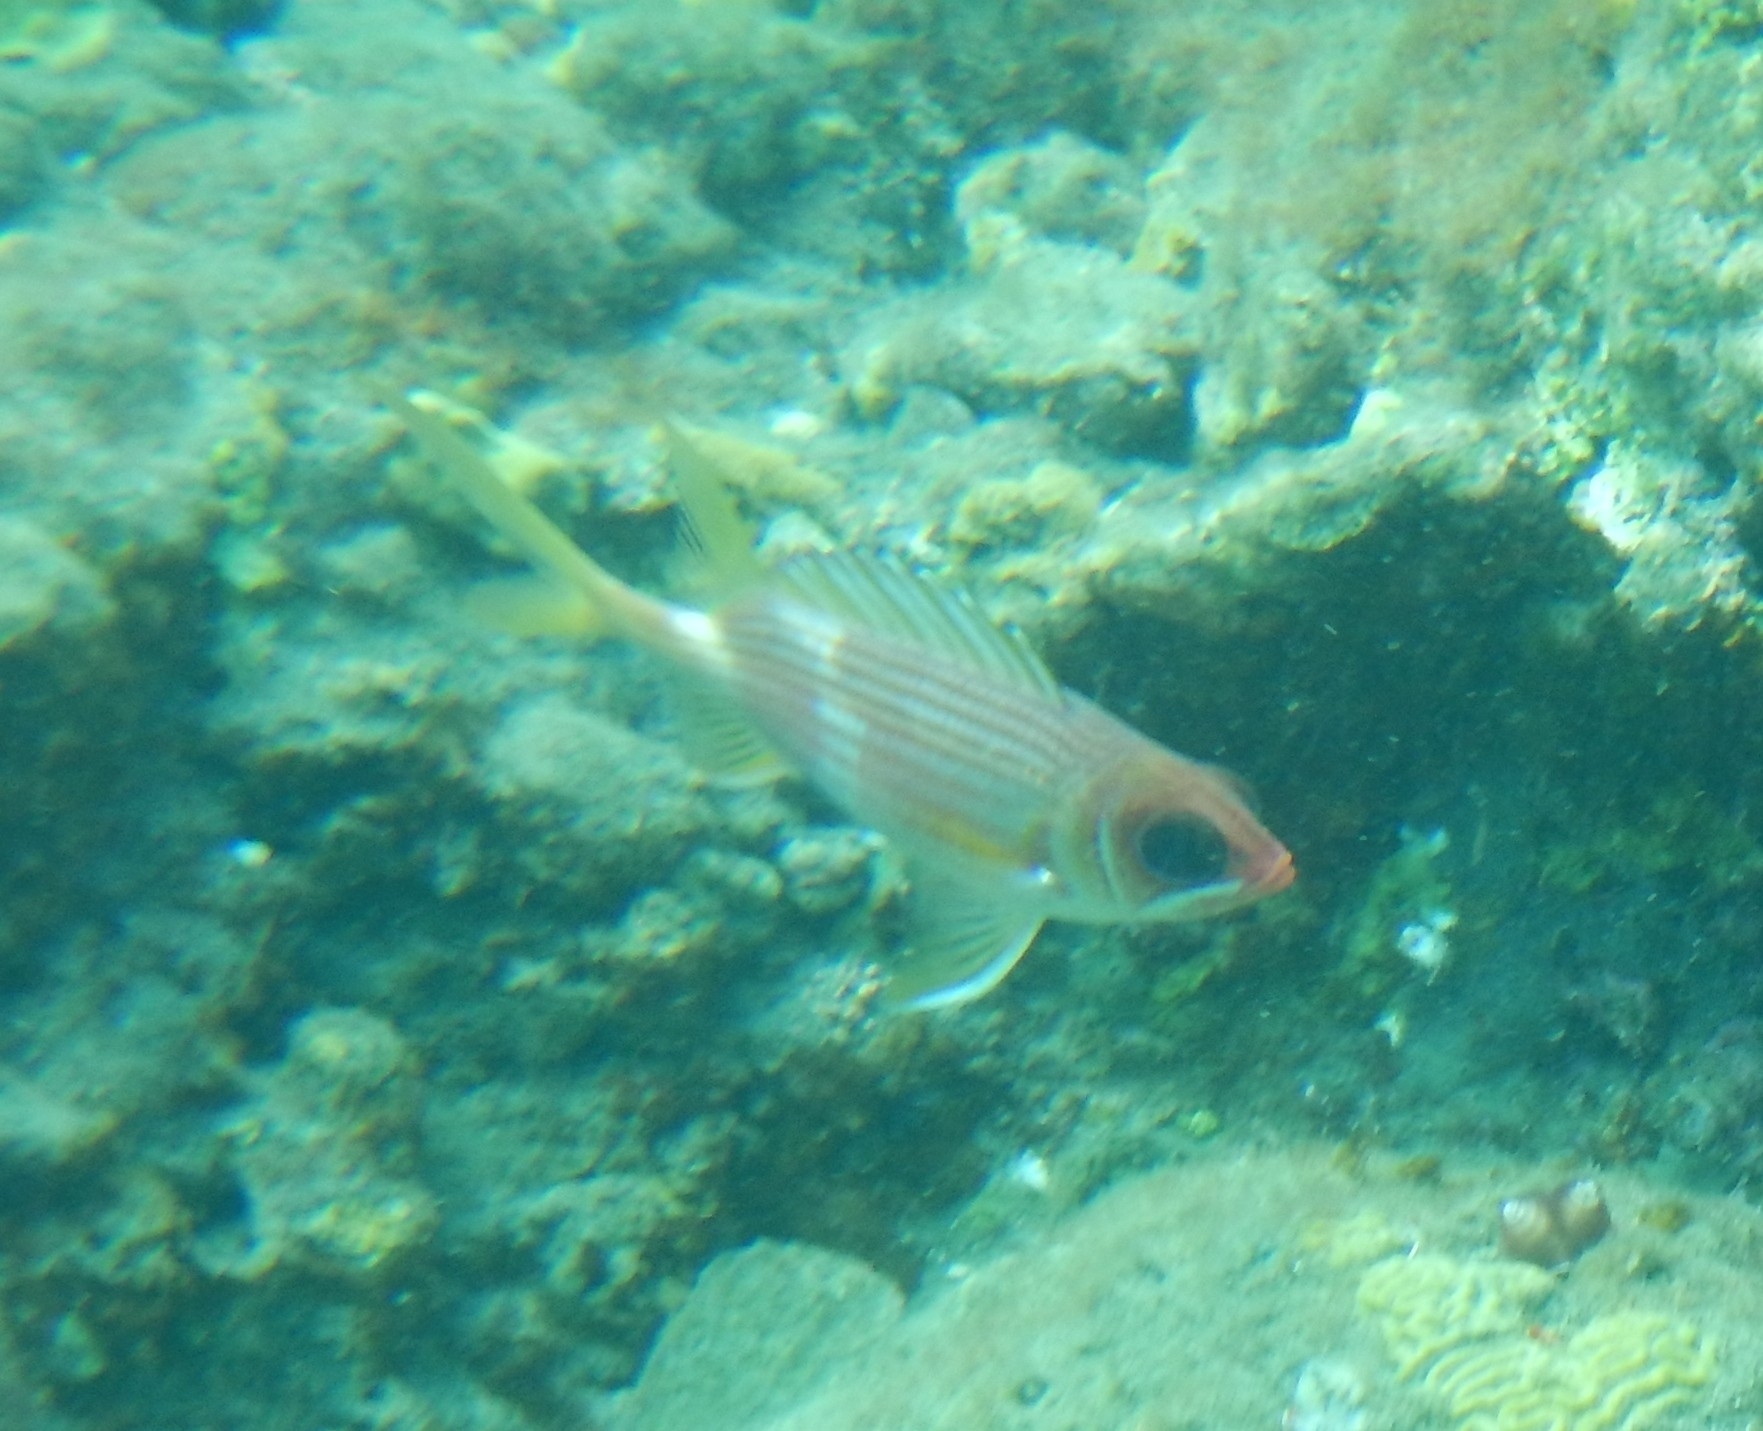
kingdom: Animalia
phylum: Chordata
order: Beryciformes
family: Holocentridae
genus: Holocentrus
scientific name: Holocentrus rufus
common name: Longspine squirrelfish
